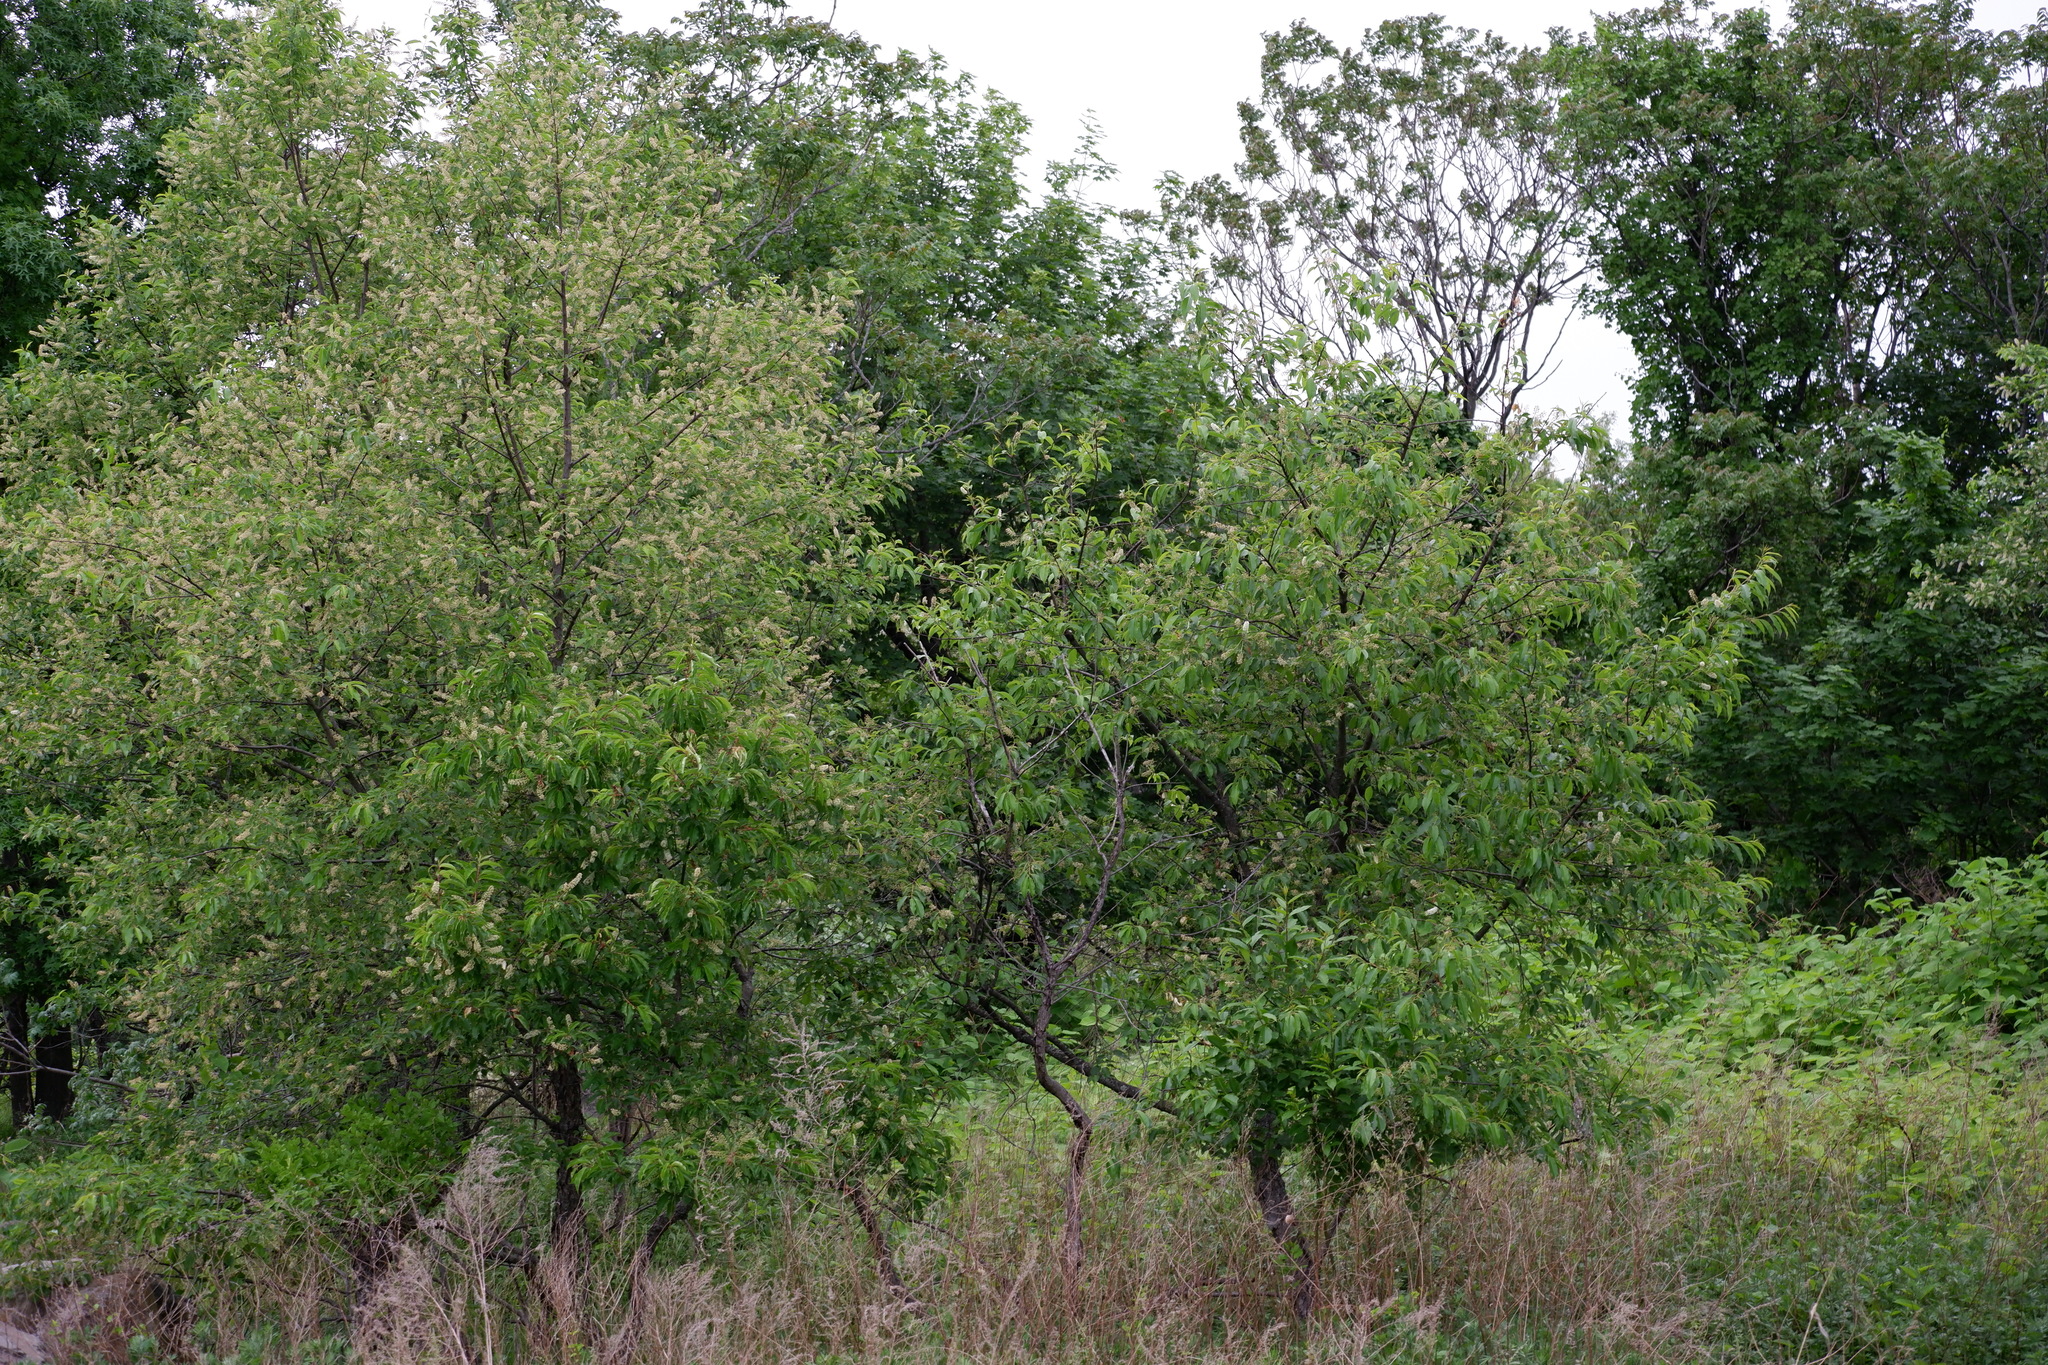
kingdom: Plantae
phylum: Tracheophyta
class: Magnoliopsida
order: Rosales
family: Rosaceae
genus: Prunus
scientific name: Prunus serotina
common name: Black cherry
